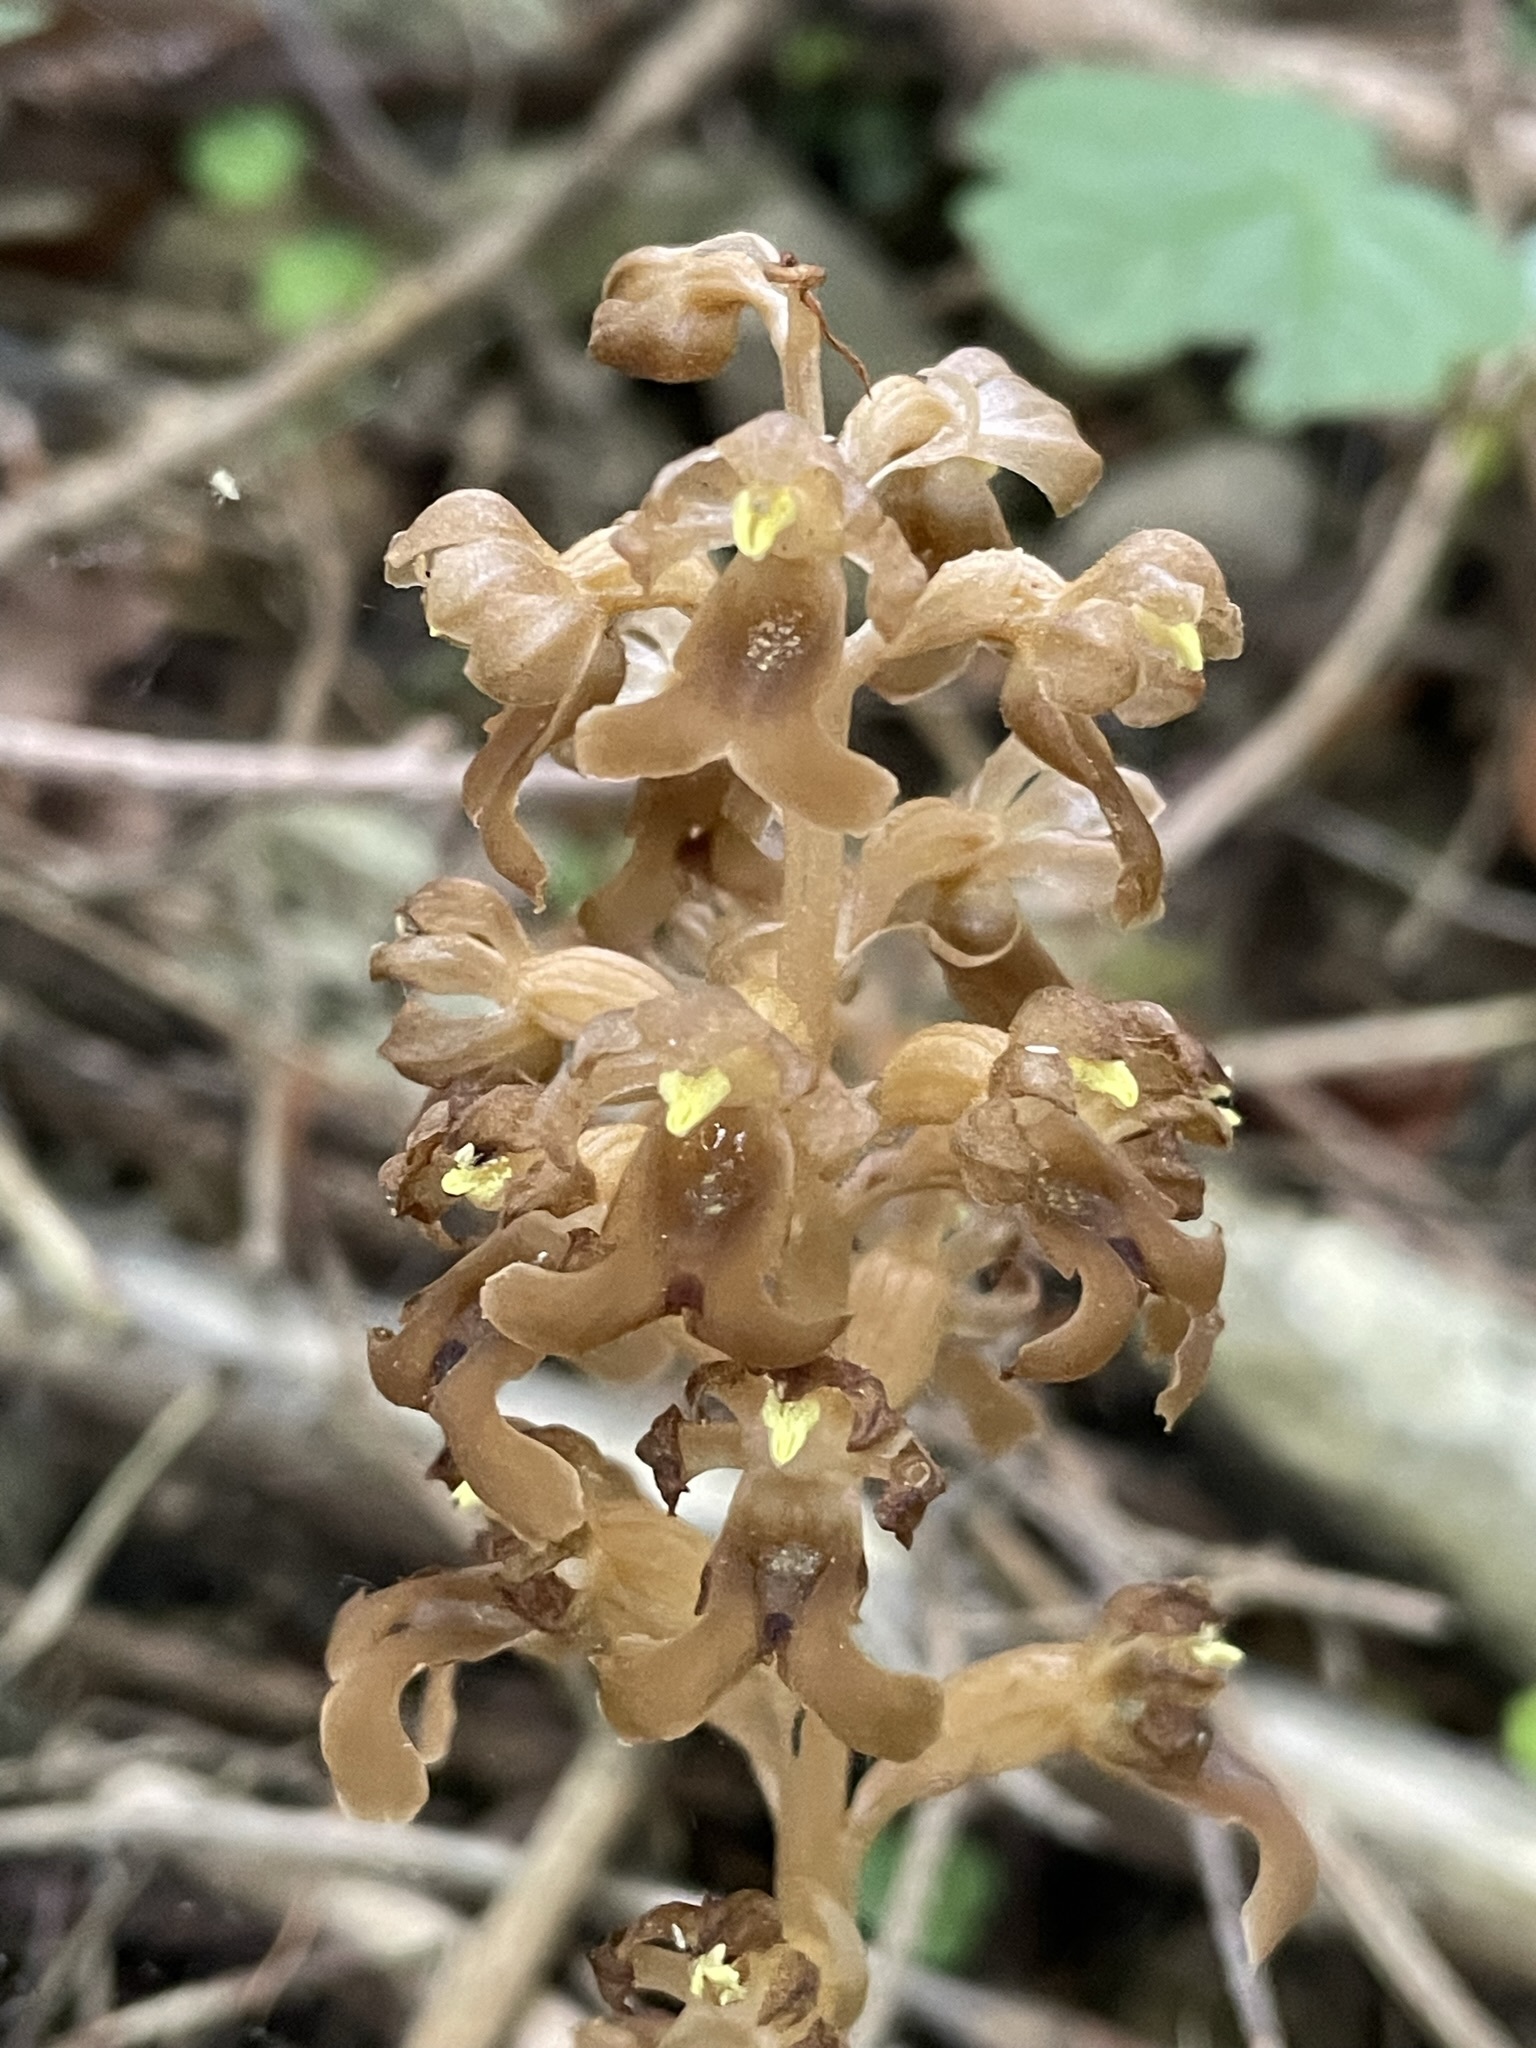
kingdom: Plantae
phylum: Tracheophyta
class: Liliopsida
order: Asparagales
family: Orchidaceae
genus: Neottia
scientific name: Neottia nidus-avis
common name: Bird's-nest orchid
